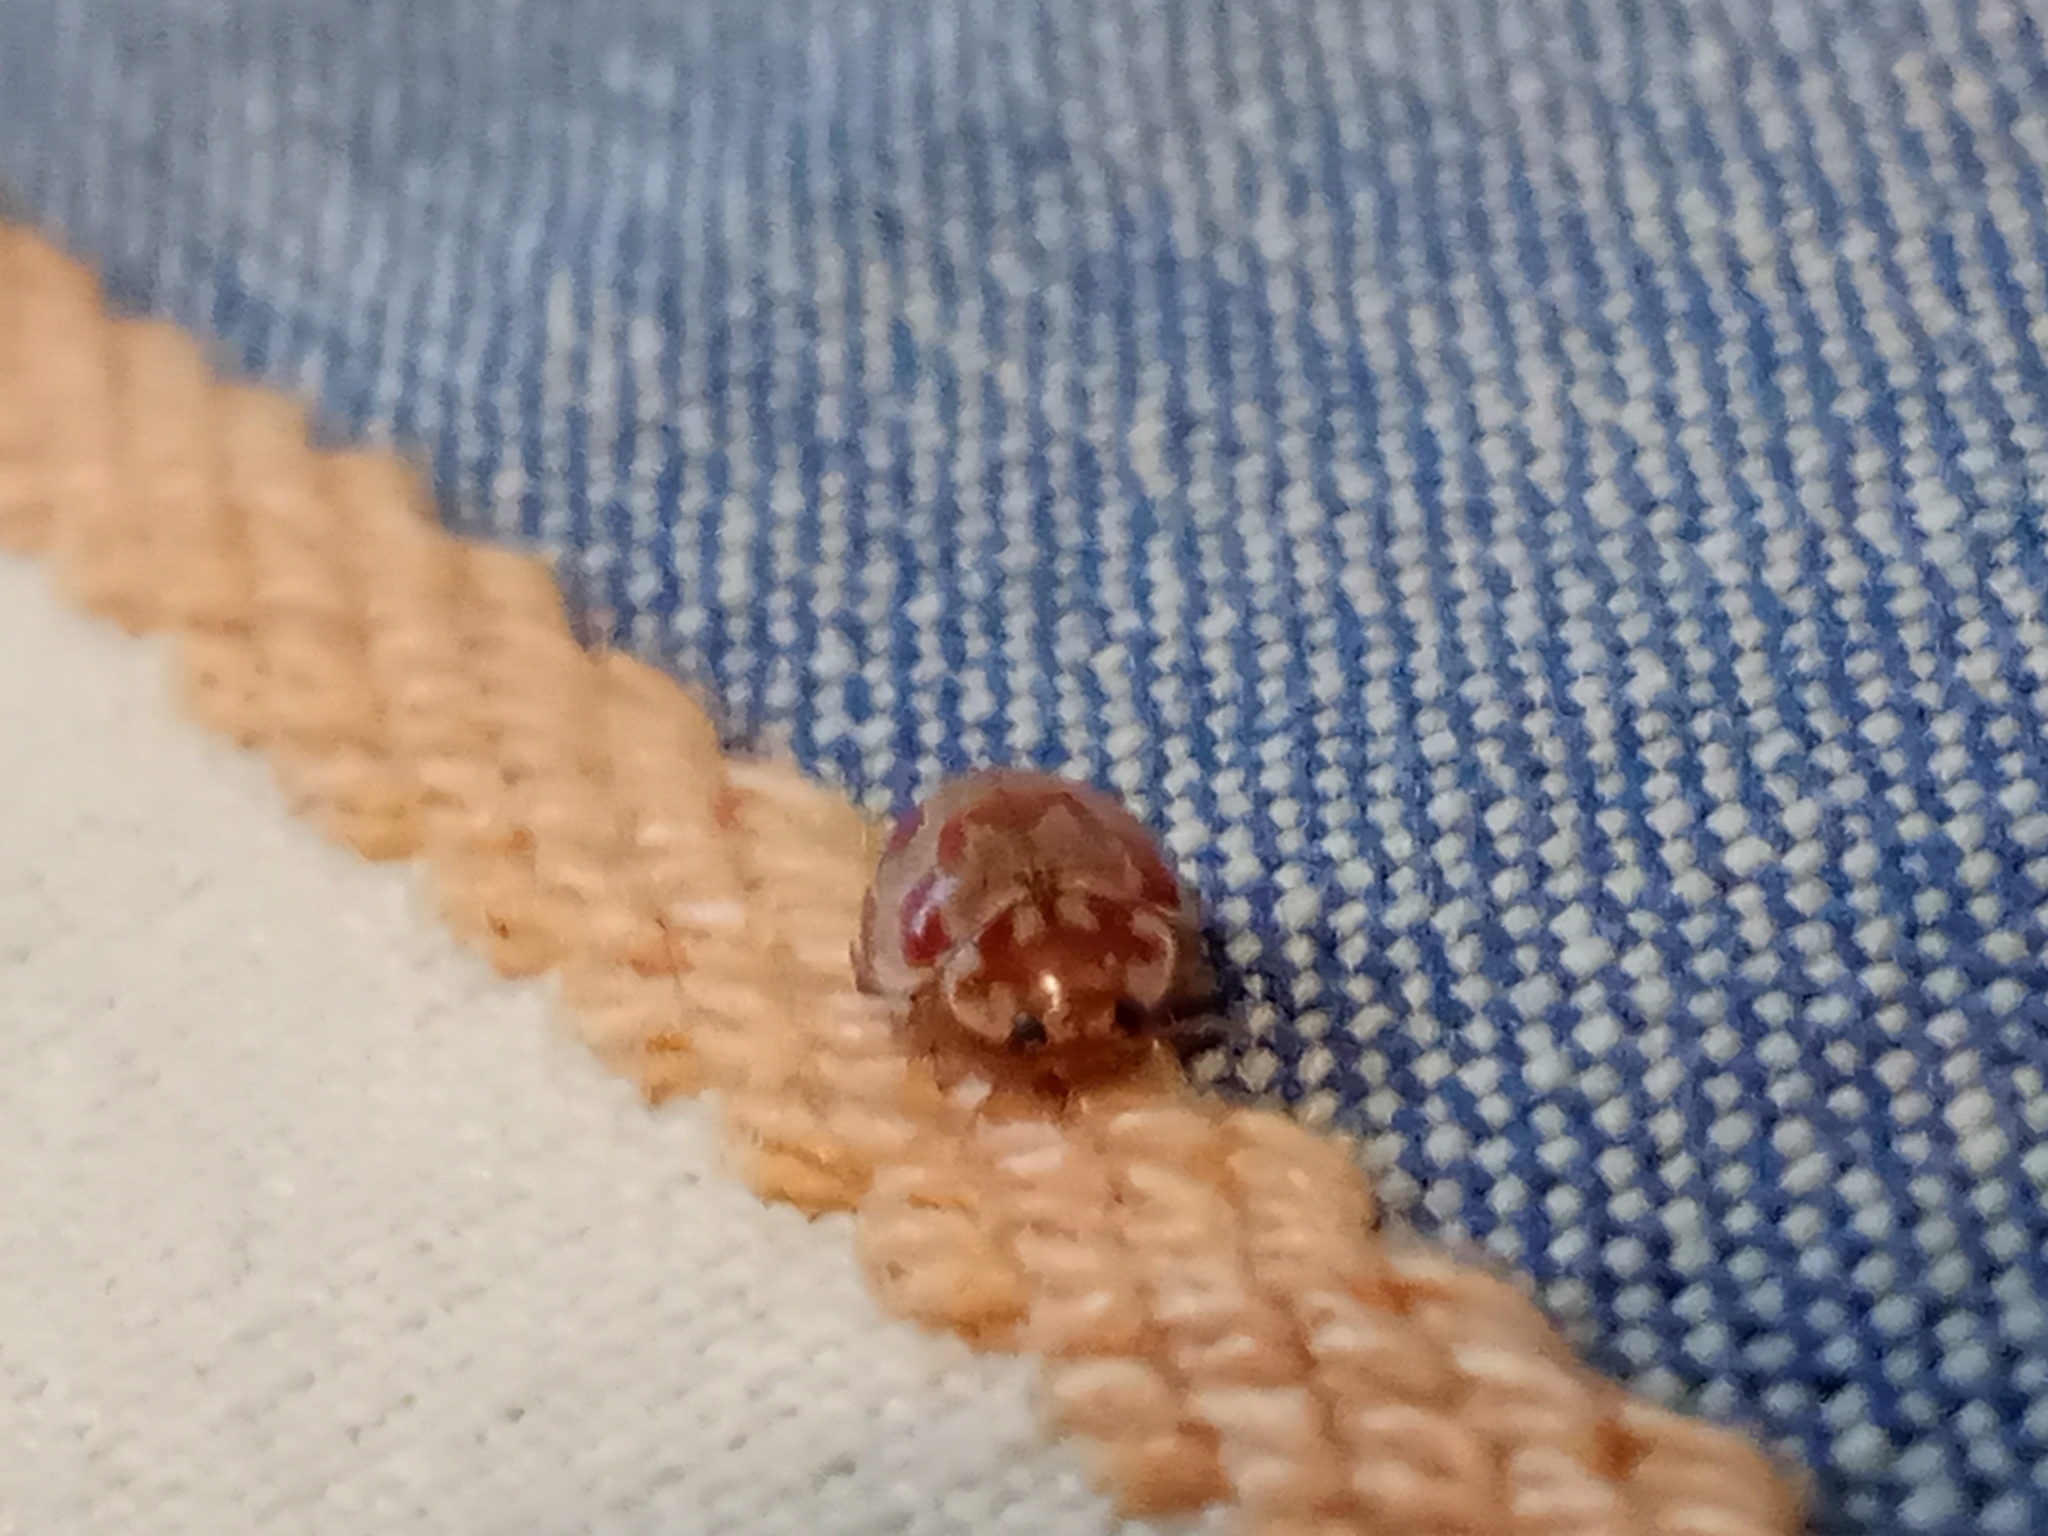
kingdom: Animalia
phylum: Arthropoda
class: Insecta
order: Coleoptera
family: Coccinellidae
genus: Myrrha
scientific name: Myrrha octodecimguttata
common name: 18-spot ladybird
